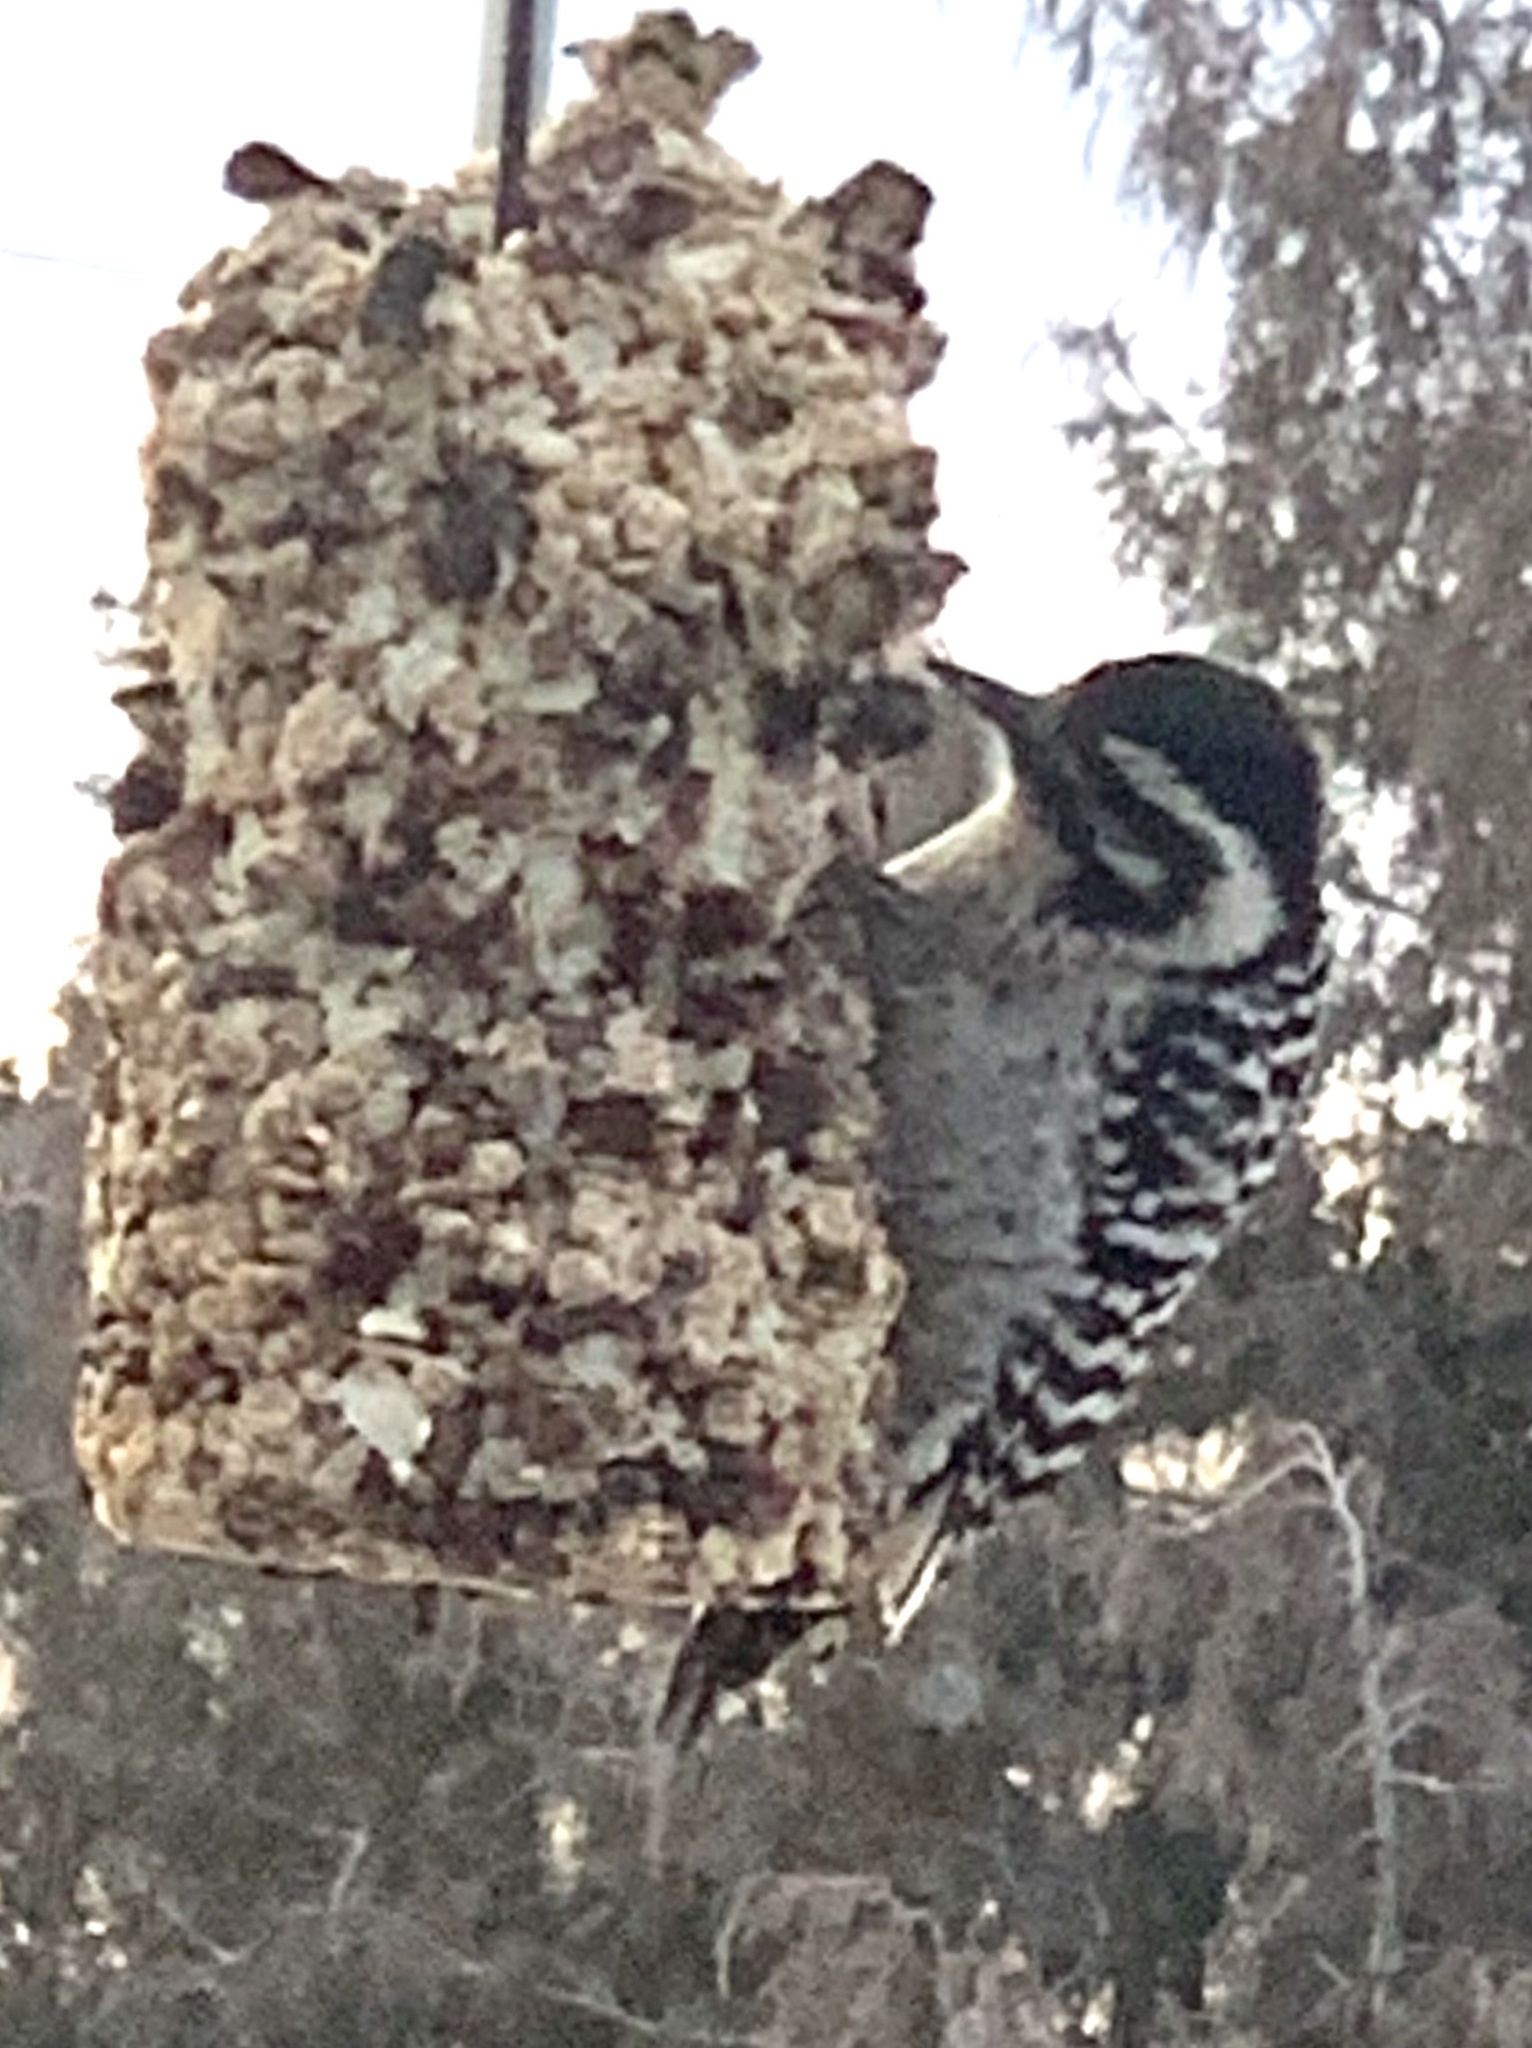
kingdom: Animalia
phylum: Chordata
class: Aves
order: Piciformes
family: Picidae
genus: Dryobates
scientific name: Dryobates scalaris
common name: Ladder-backed woodpecker
